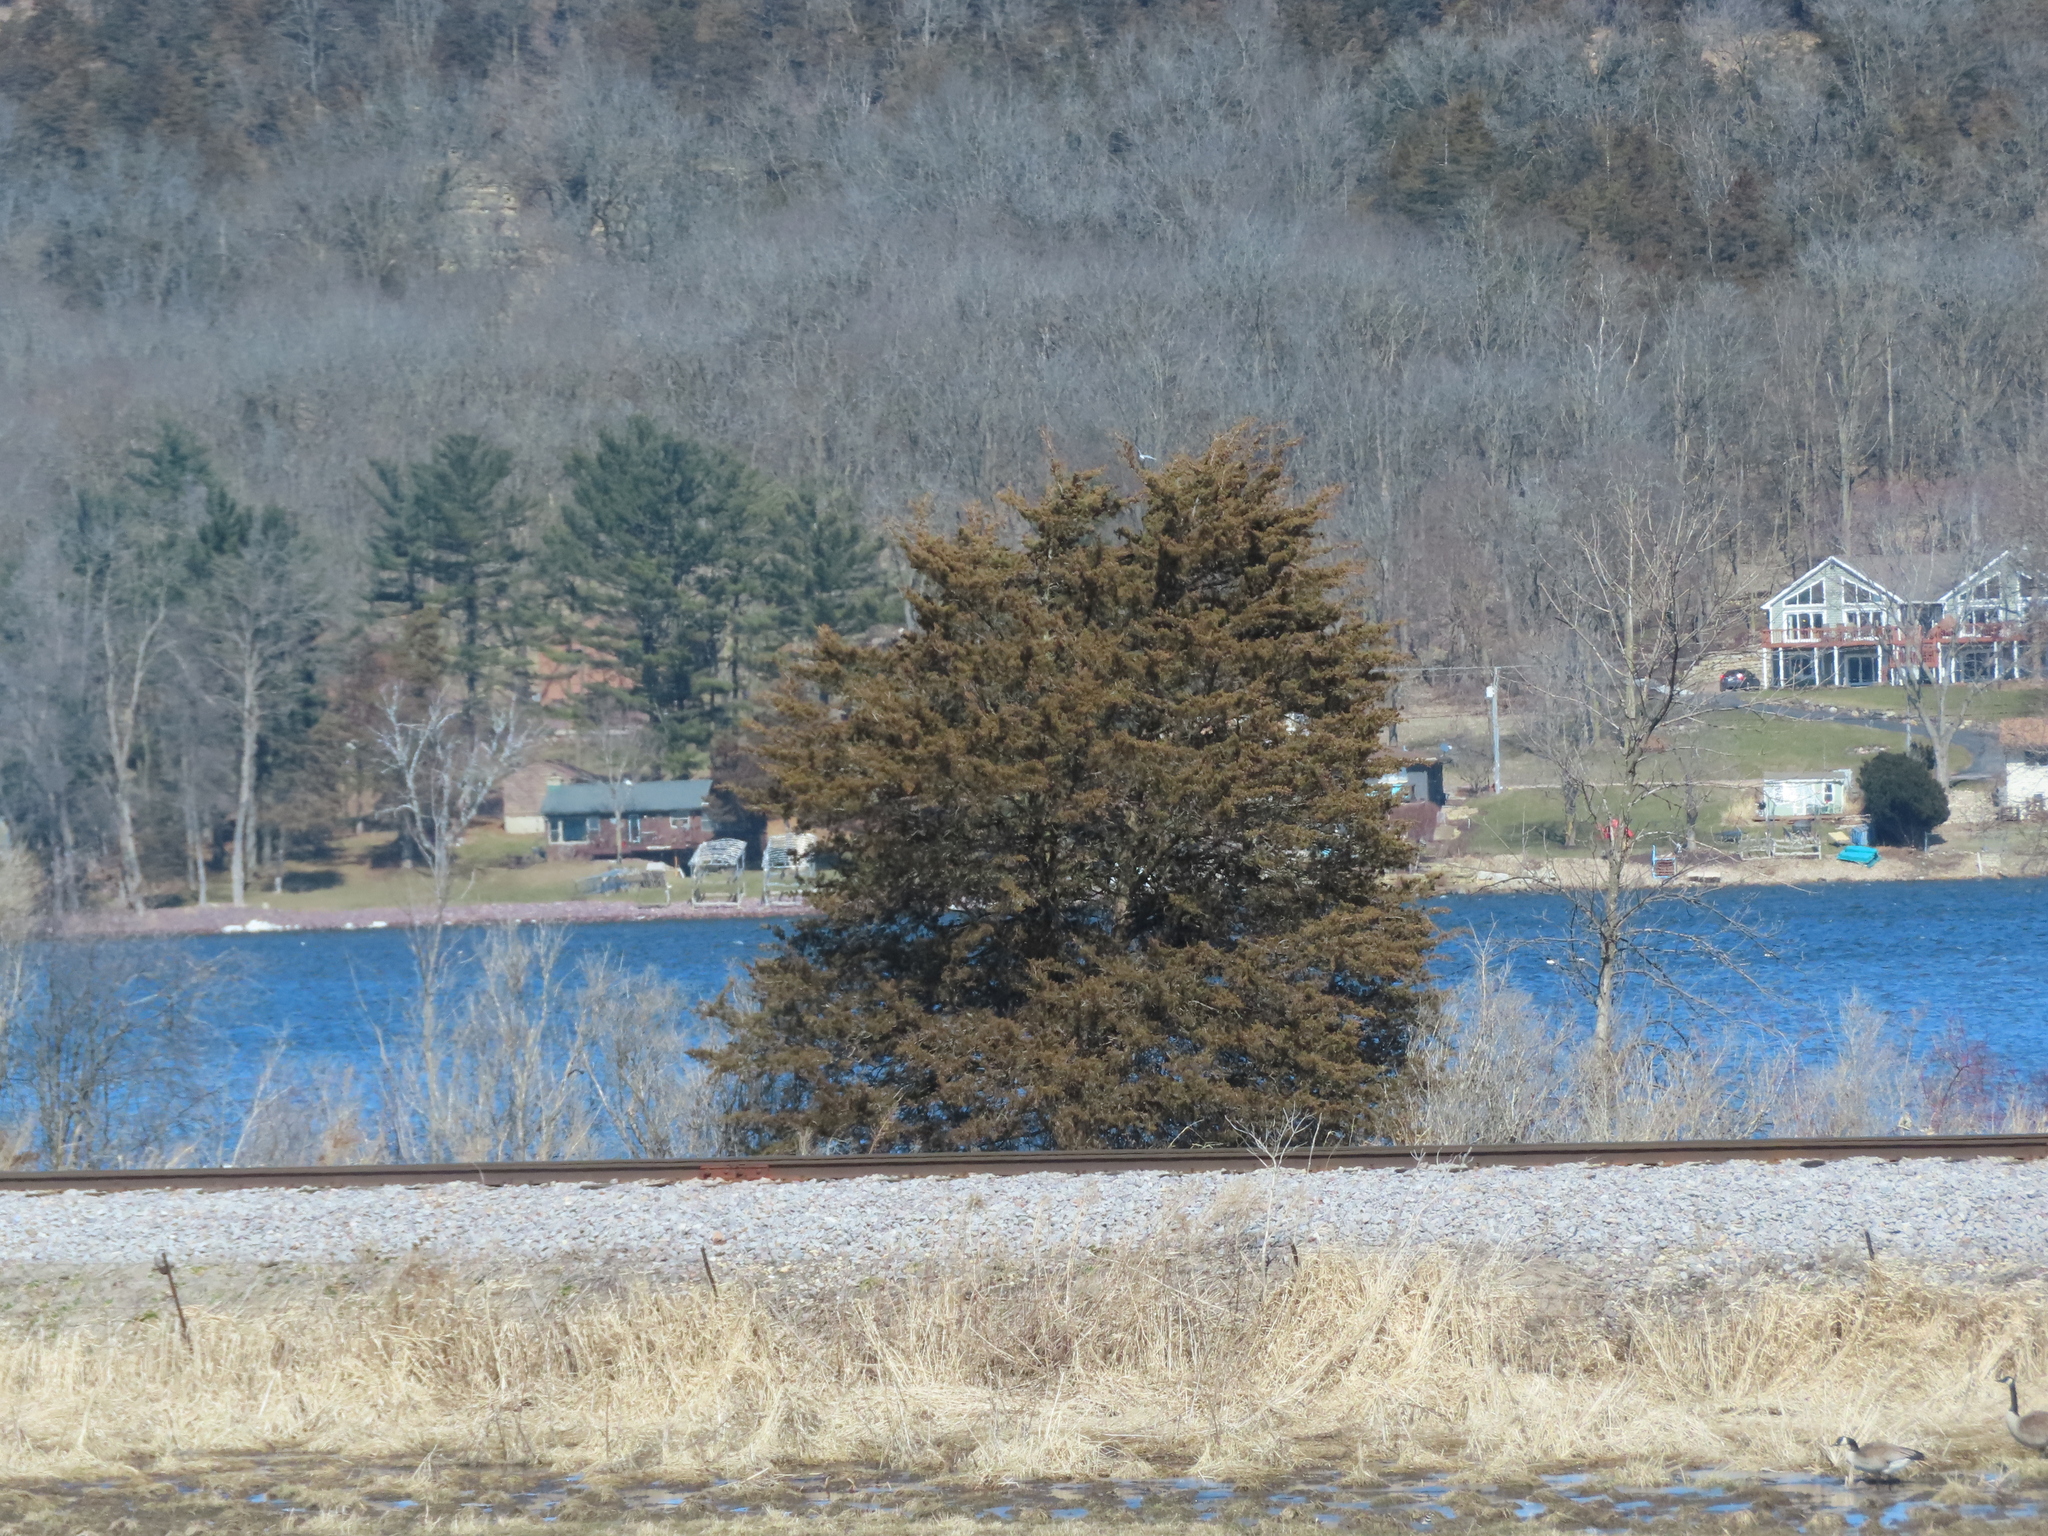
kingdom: Plantae
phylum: Tracheophyta
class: Pinopsida
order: Pinales
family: Cupressaceae
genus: Juniperus
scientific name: Juniperus virginiana
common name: Red juniper
